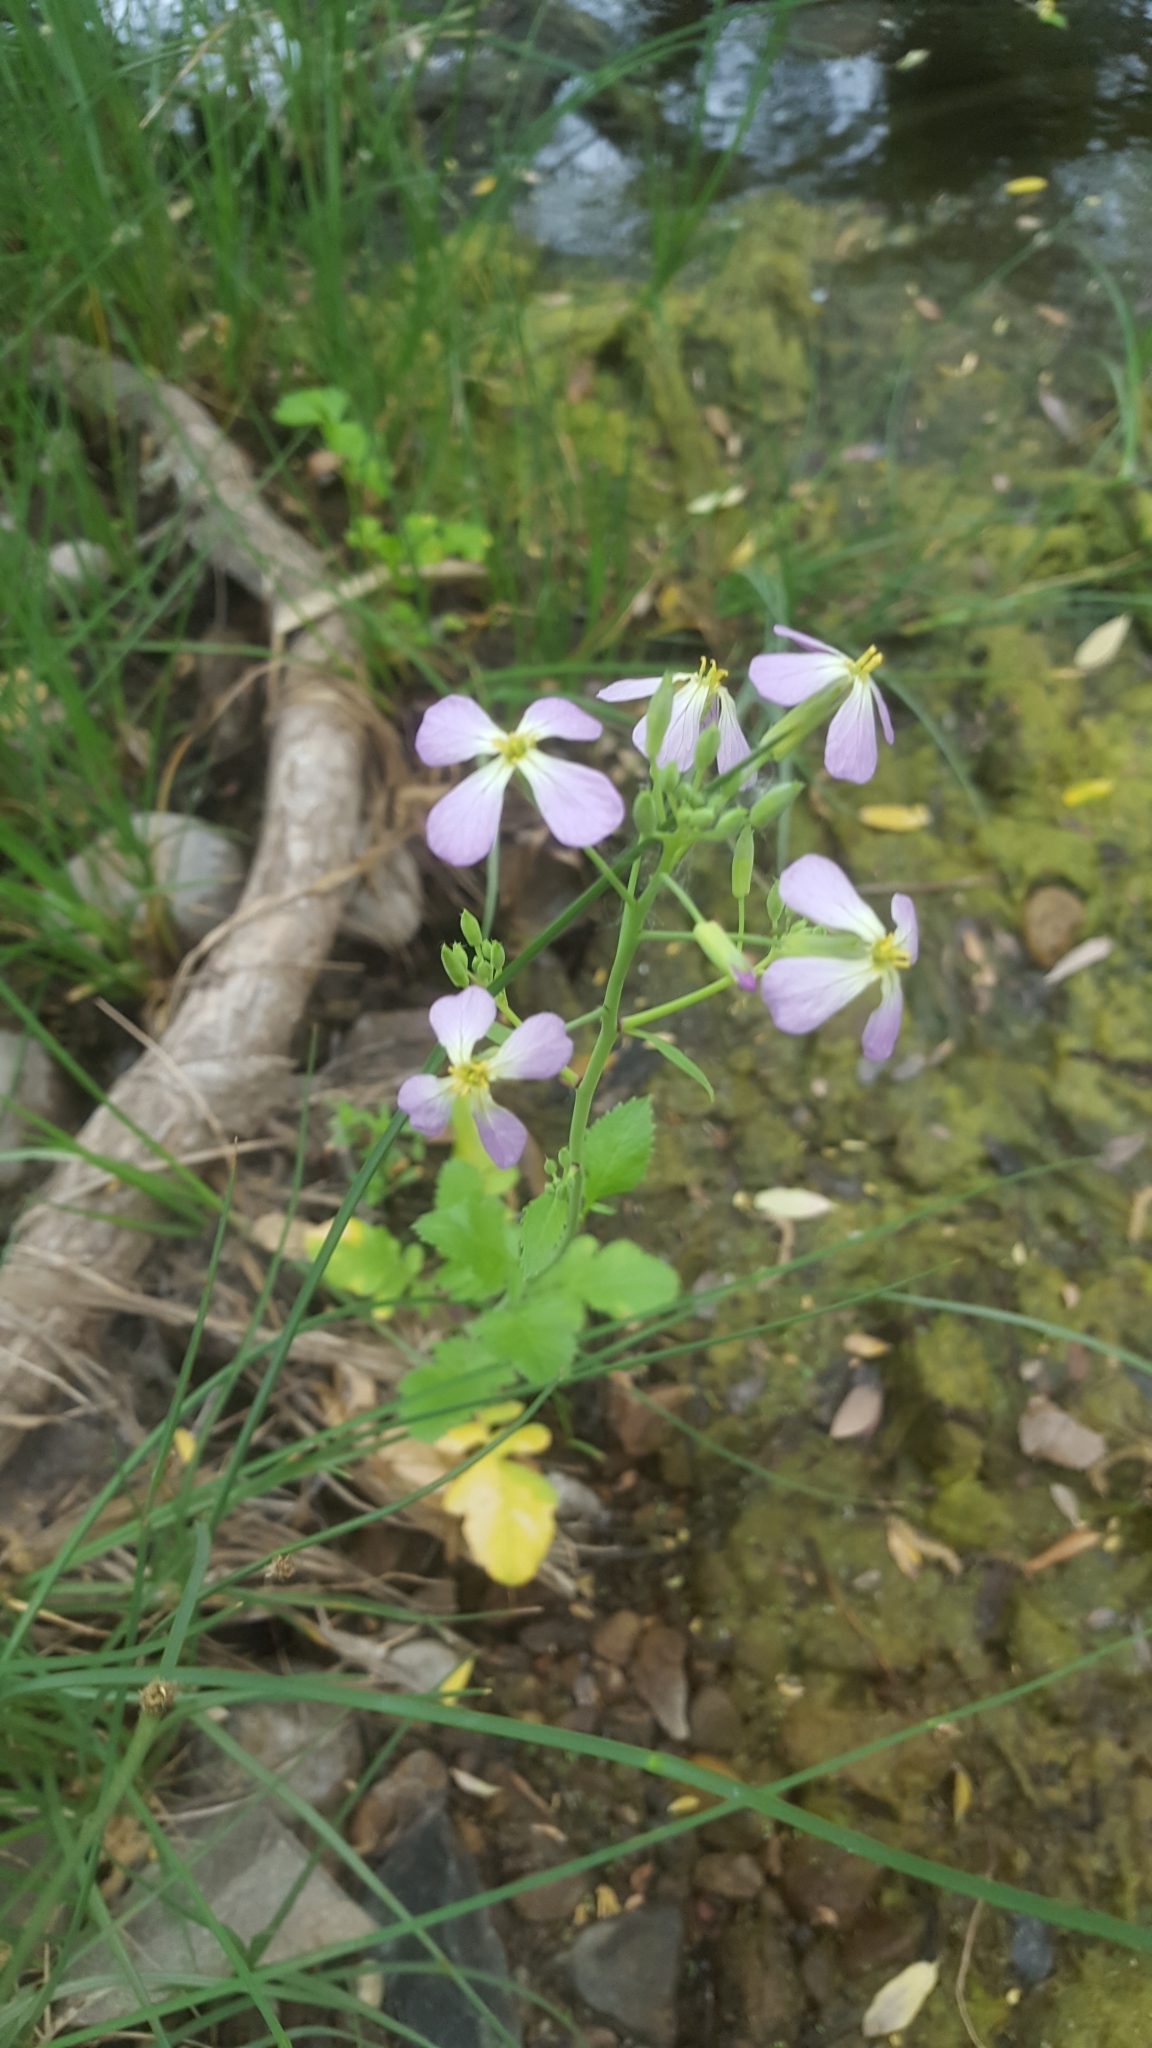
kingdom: Plantae
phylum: Tracheophyta
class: Magnoliopsida
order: Brassicales
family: Brassicaceae
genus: Raphanus
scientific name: Raphanus sativus
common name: Cultivated radish
